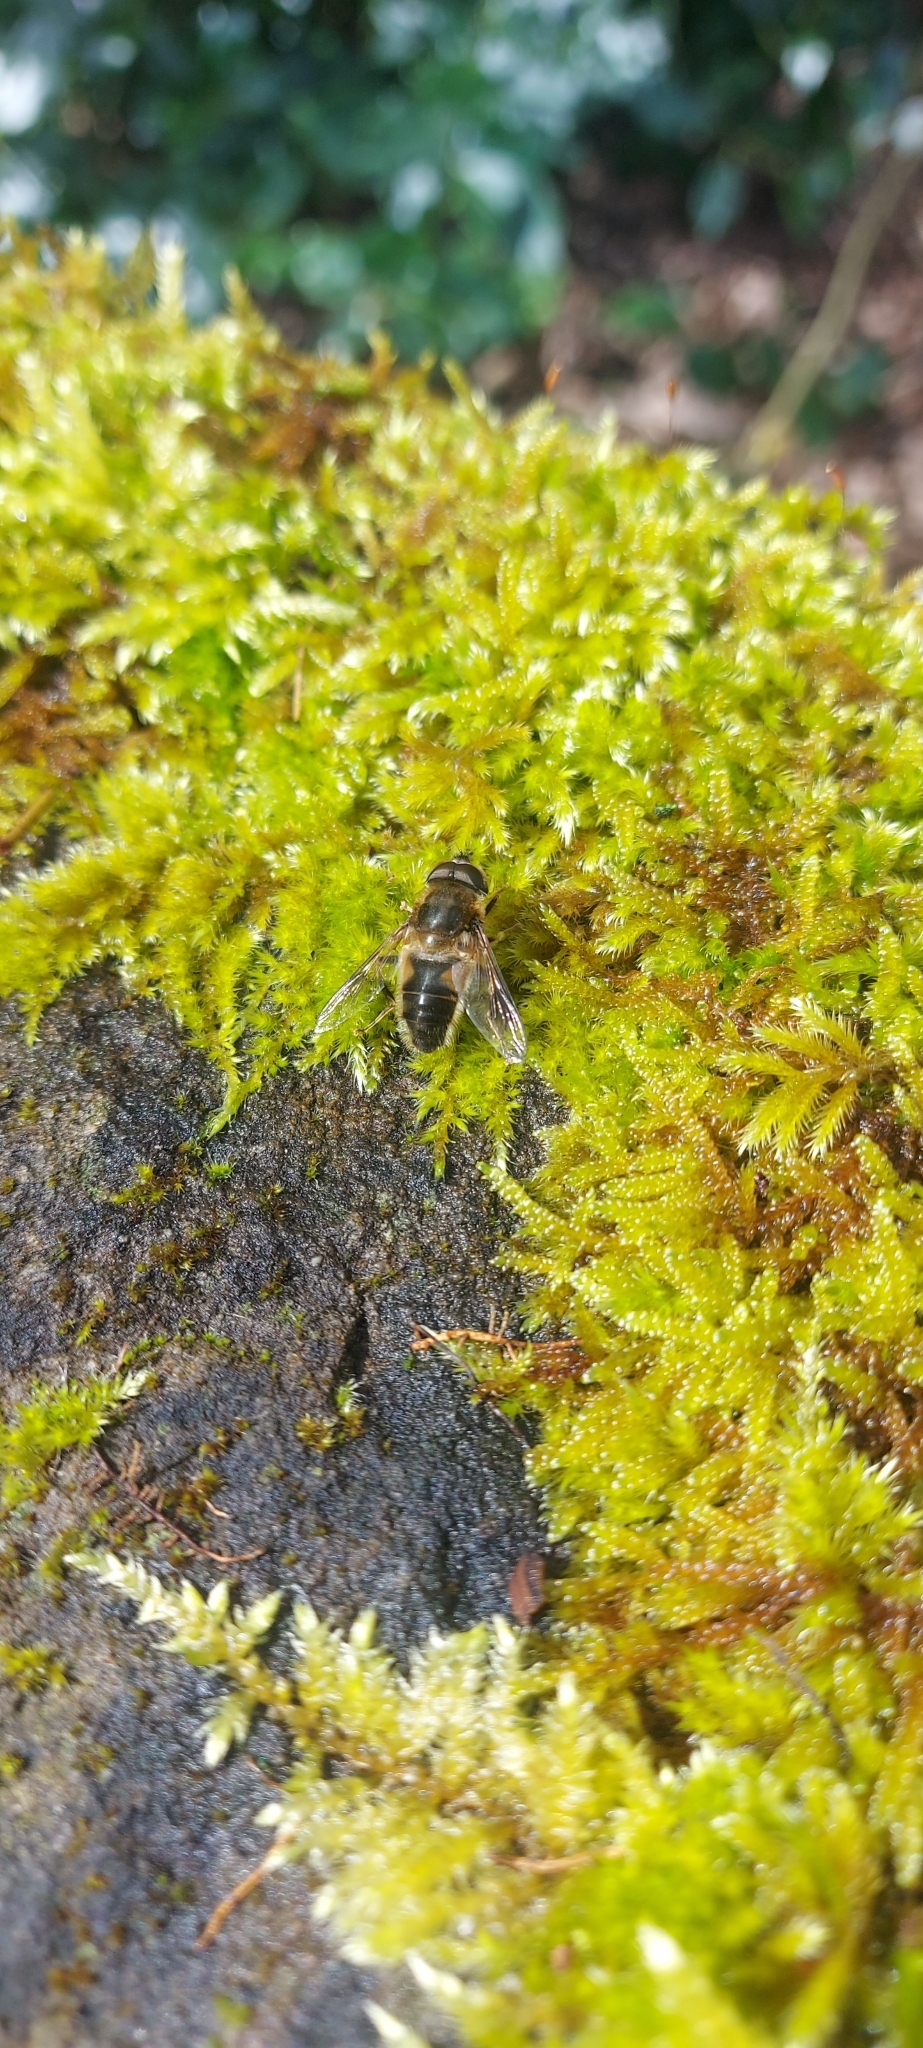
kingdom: Animalia
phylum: Arthropoda
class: Insecta
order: Diptera
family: Syrphidae
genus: Eristalis
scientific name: Eristalis pertinax
